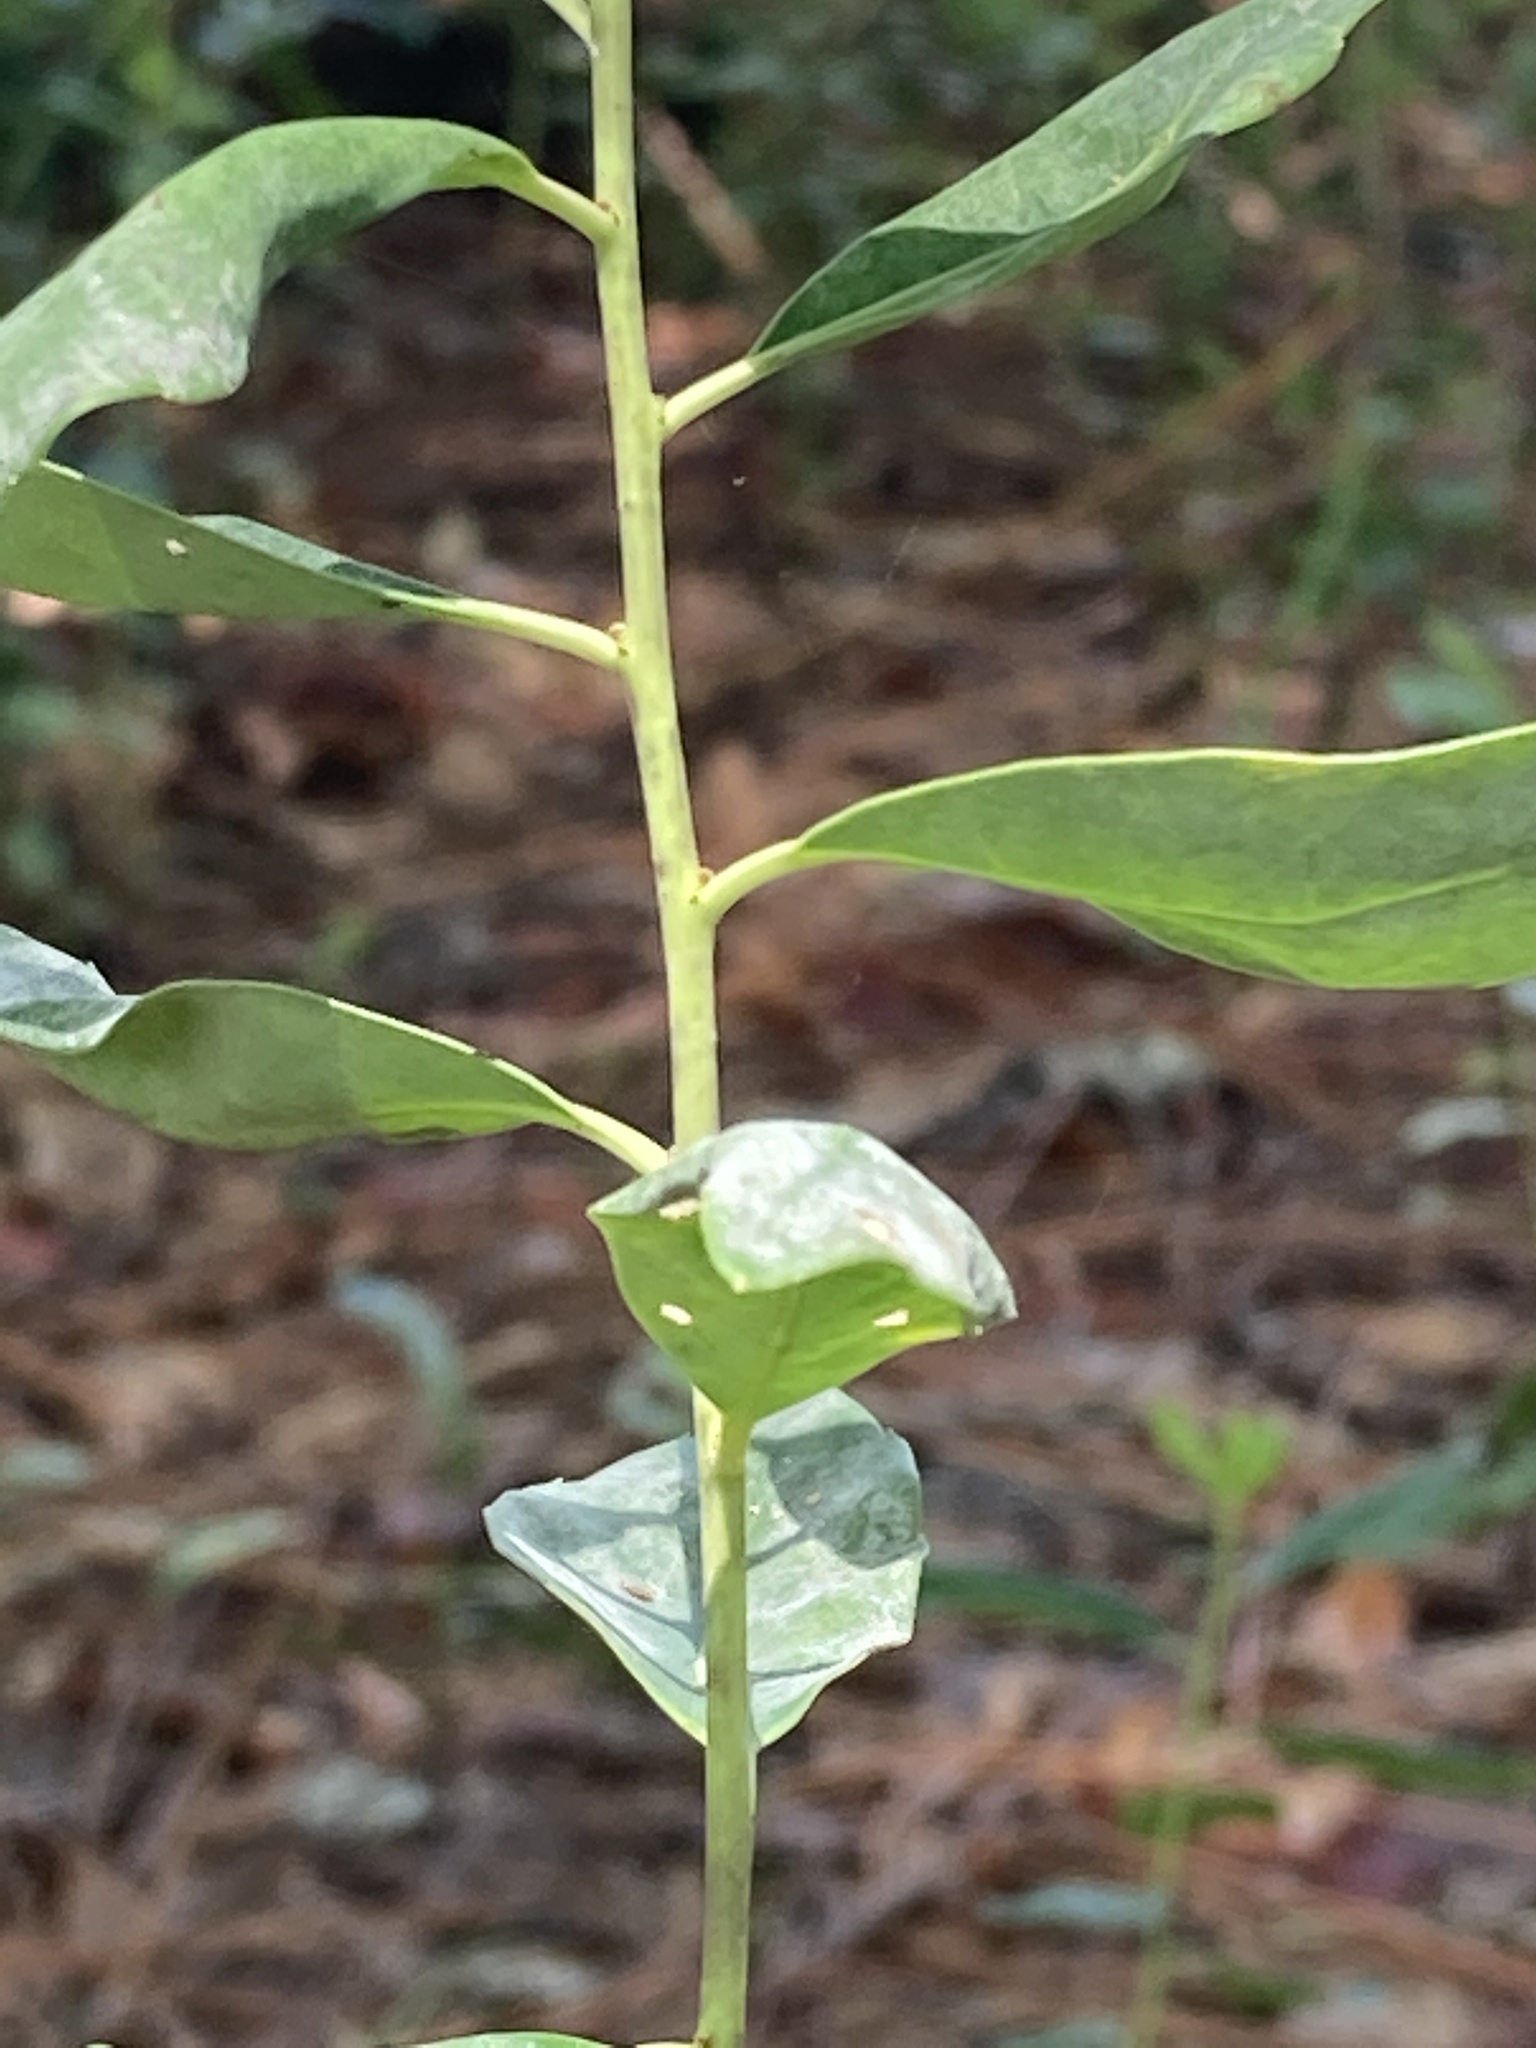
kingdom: Plantae
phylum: Tracheophyta
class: Magnoliopsida
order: Aquifoliales
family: Aquifoliaceae
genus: Ilex
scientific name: Ilex glabra
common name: Bitter gallberry
